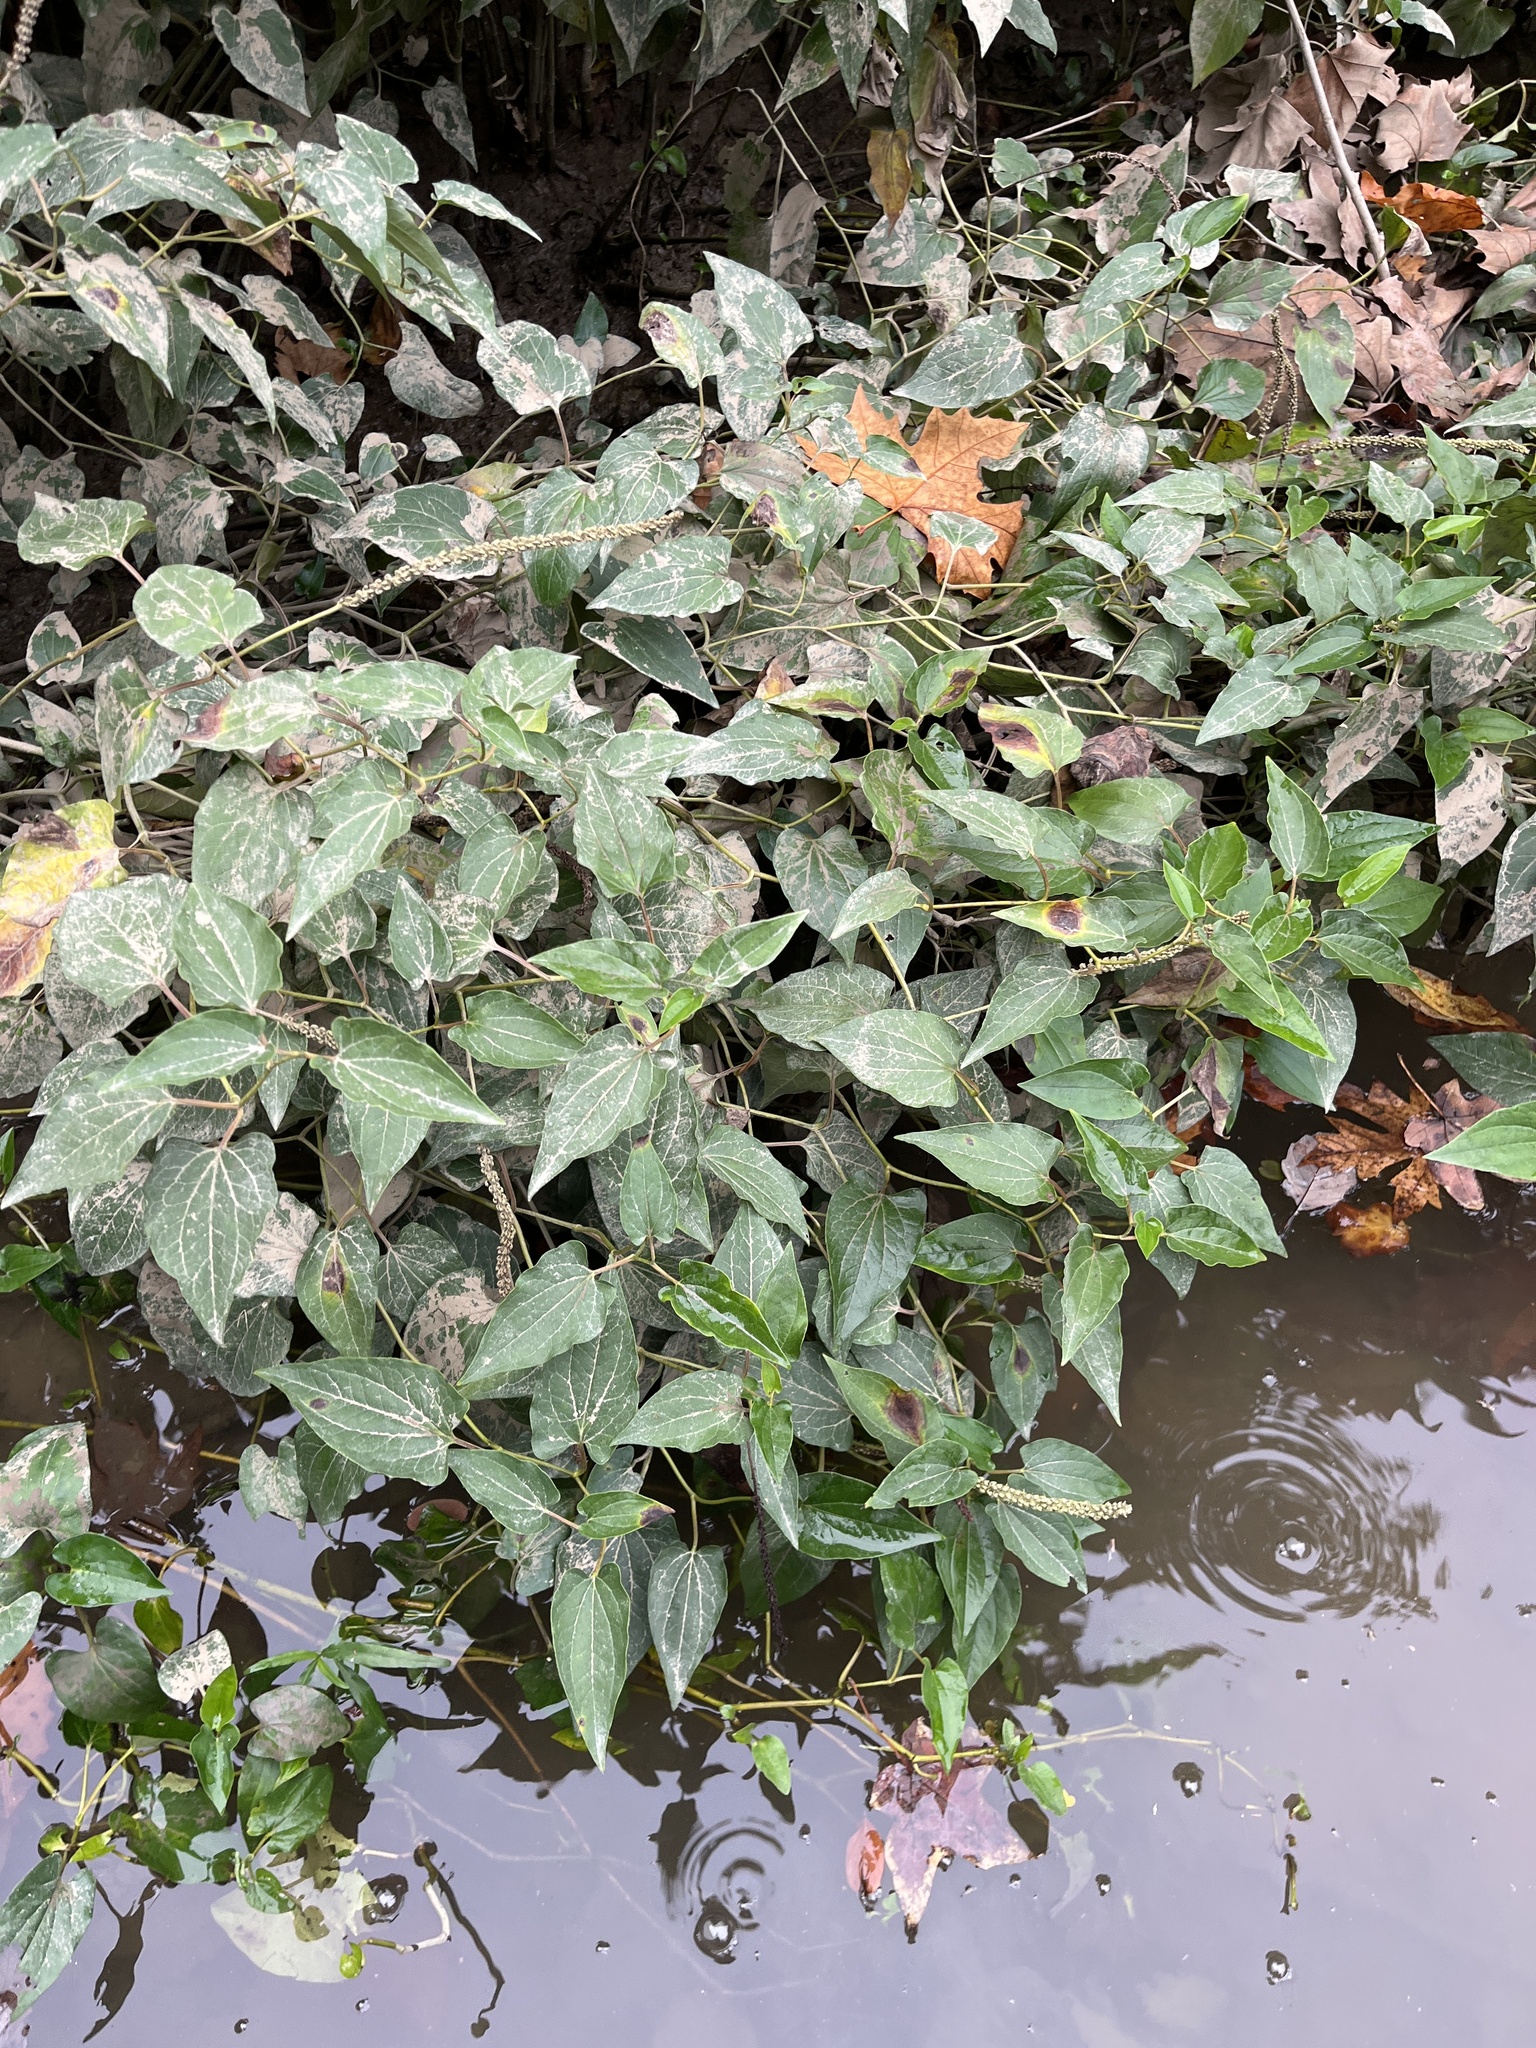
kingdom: Plantae
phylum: Tracheophyta
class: Magnoliopsida
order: Piperales
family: Saururaceae
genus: Saururus
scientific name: Saururus cernuus
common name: Lizard's-tail
